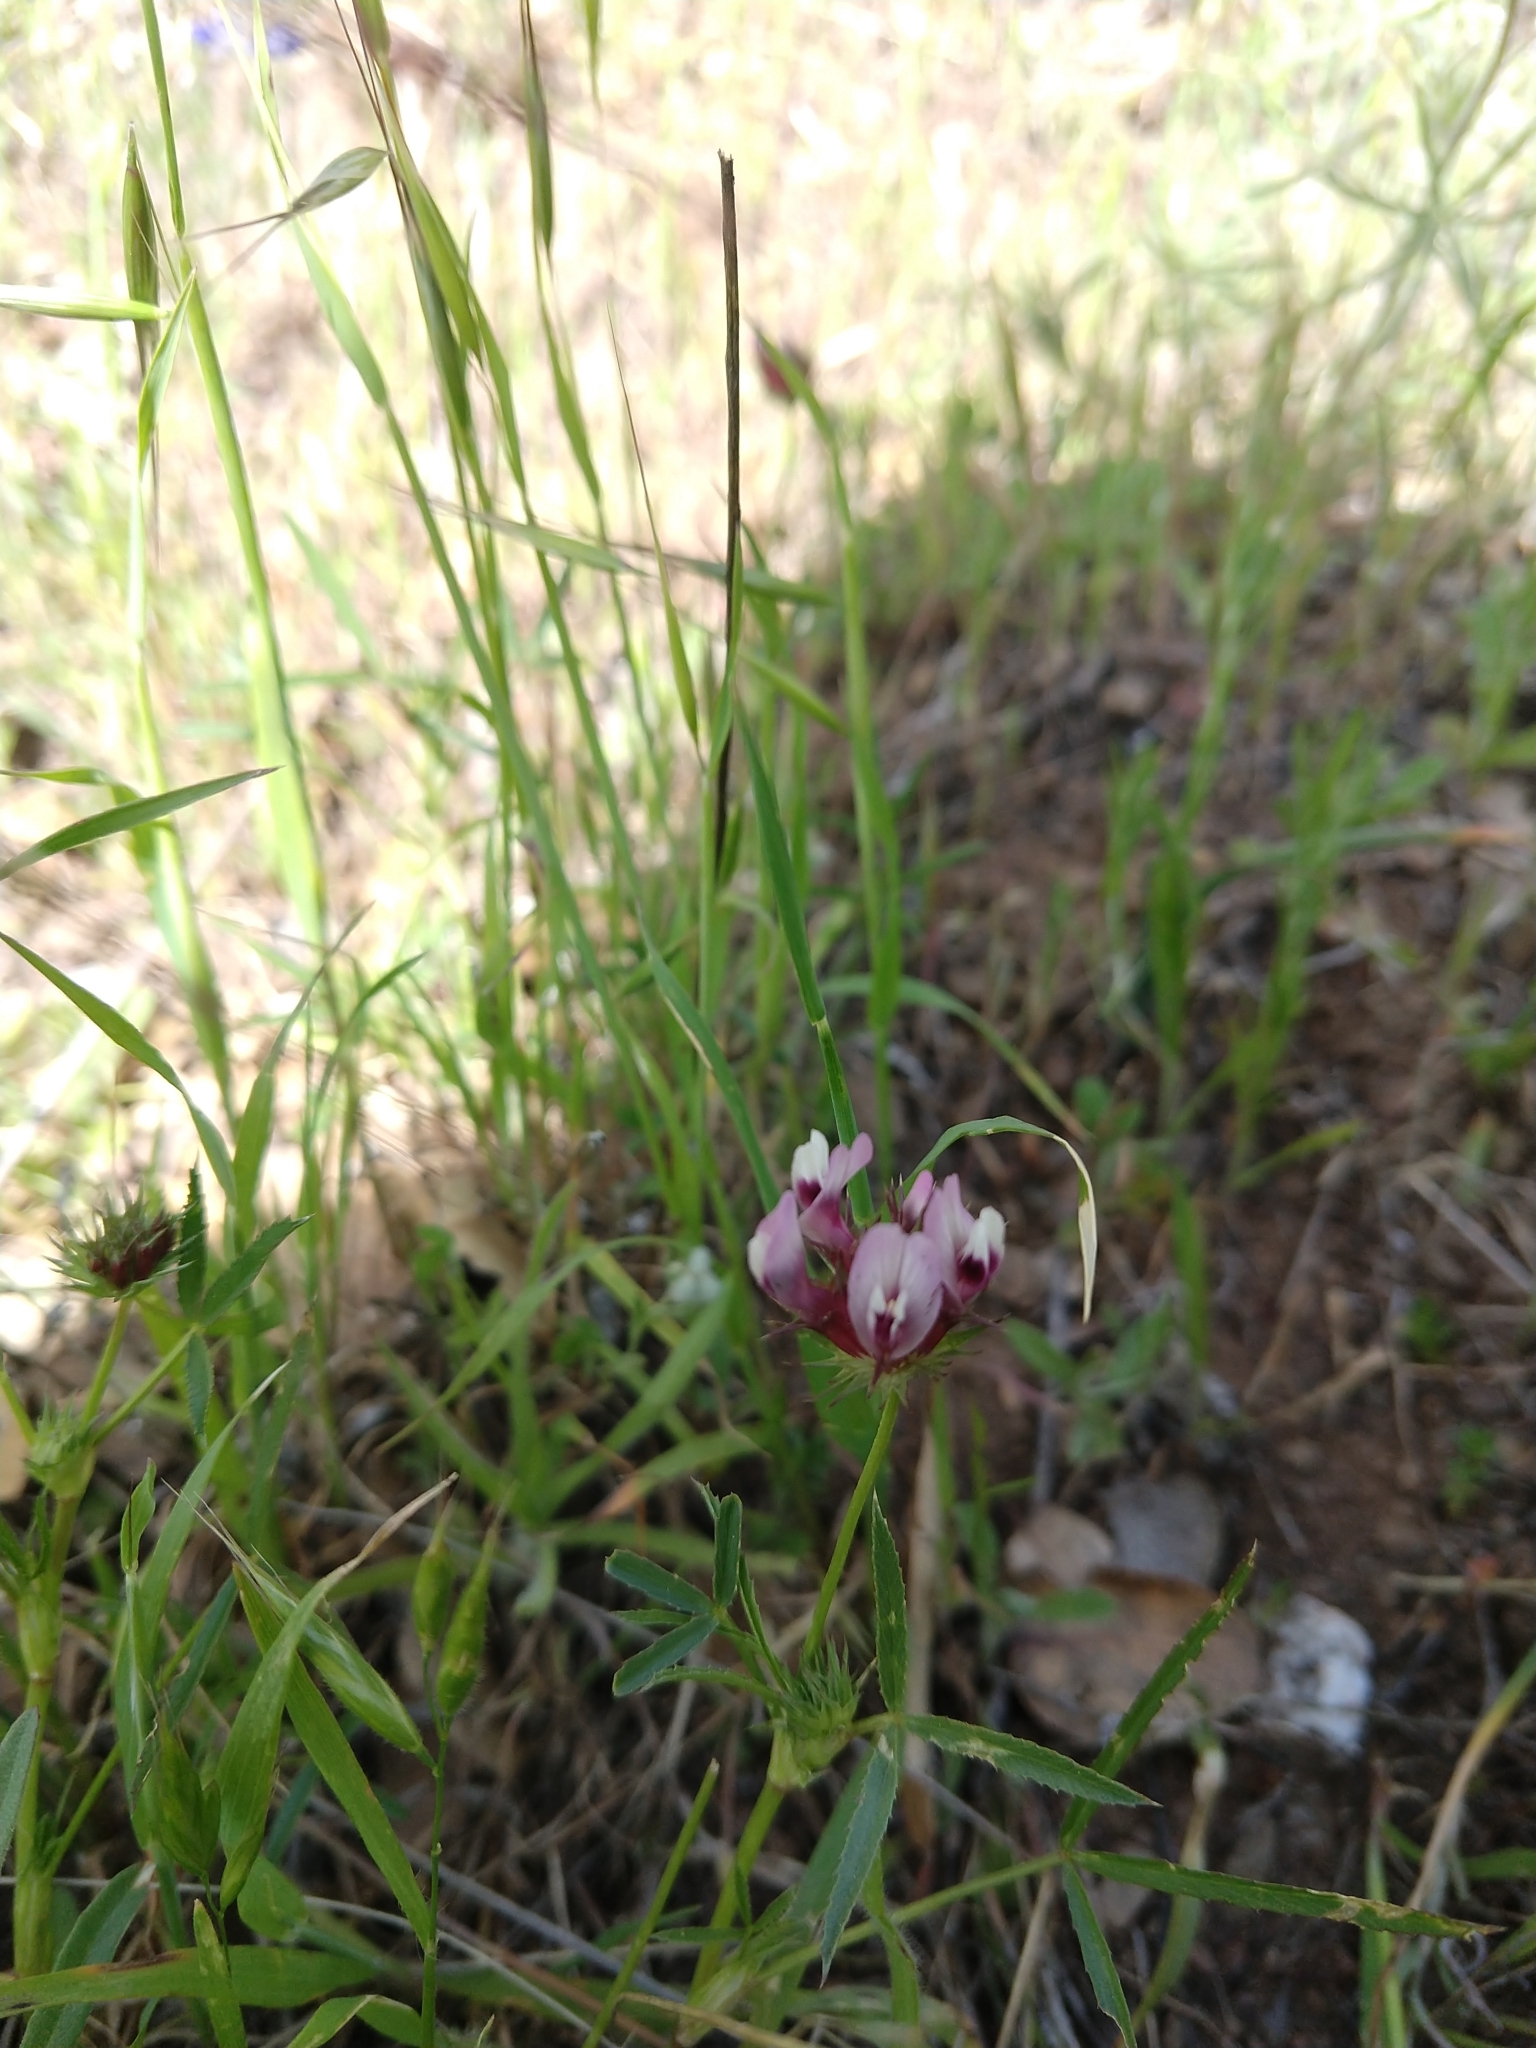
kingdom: Plantae
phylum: Tracheophyta
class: Magnoliopsida
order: Fabales
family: Fabaceae
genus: Trifolium
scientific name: Trifolium willdenovii
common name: Tomcat clover
